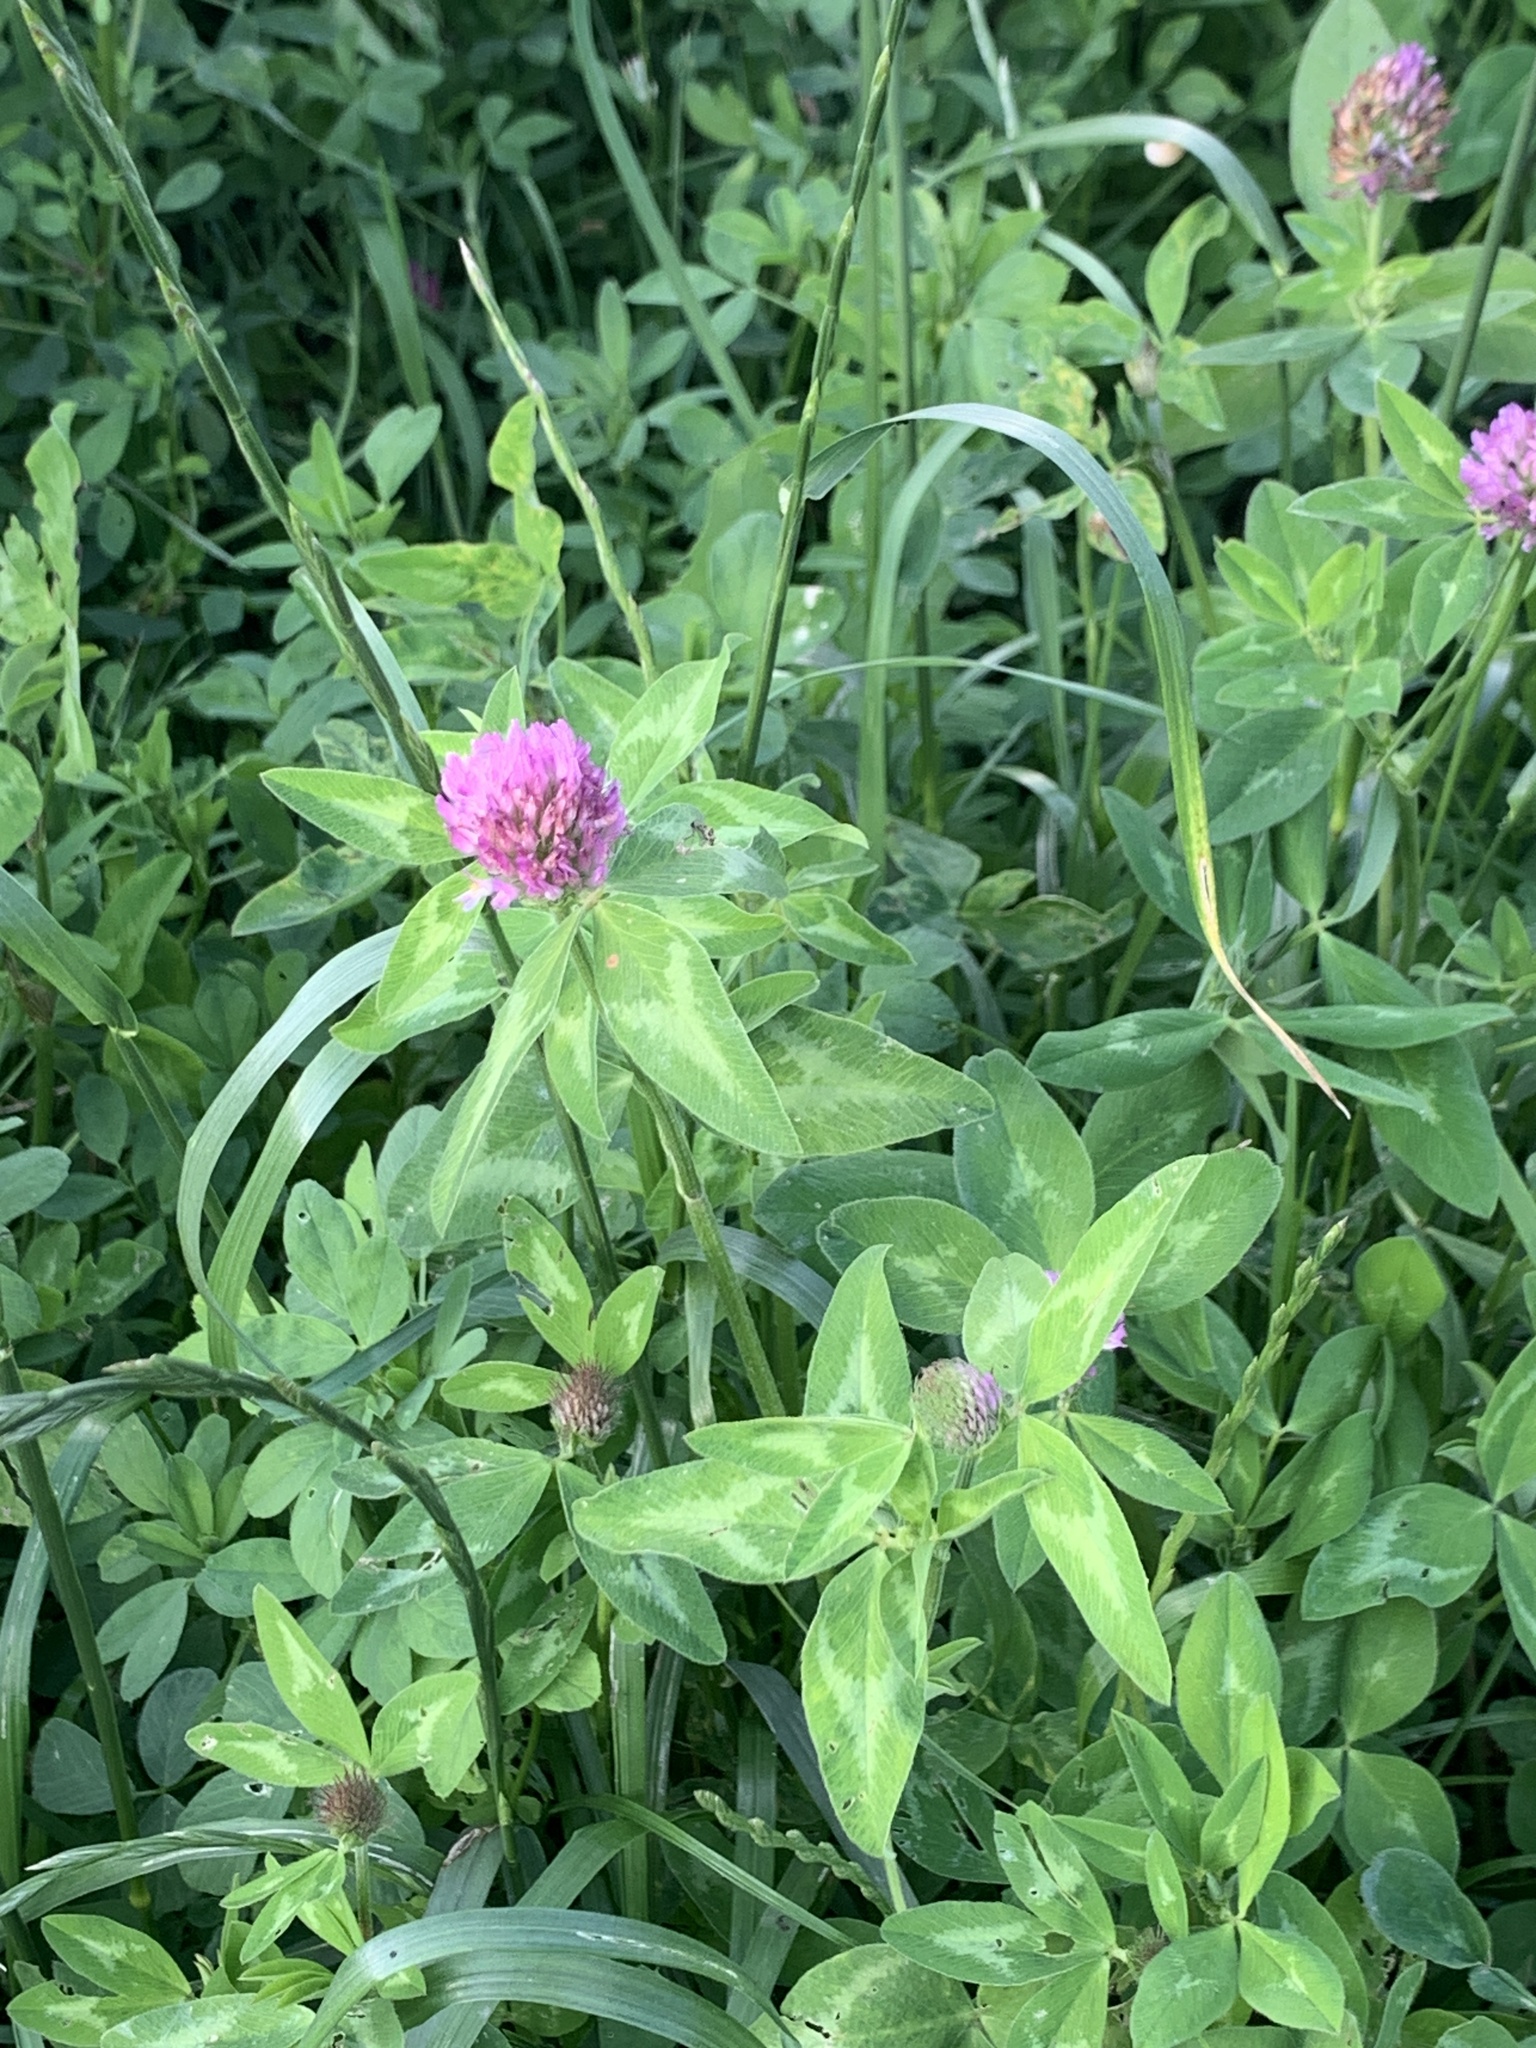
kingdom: Plantae
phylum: Tracheophyta
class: Magnoliopsida
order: Fabales
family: Fabaceae
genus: Trifolium
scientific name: Trifolium pratense
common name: Red clover
